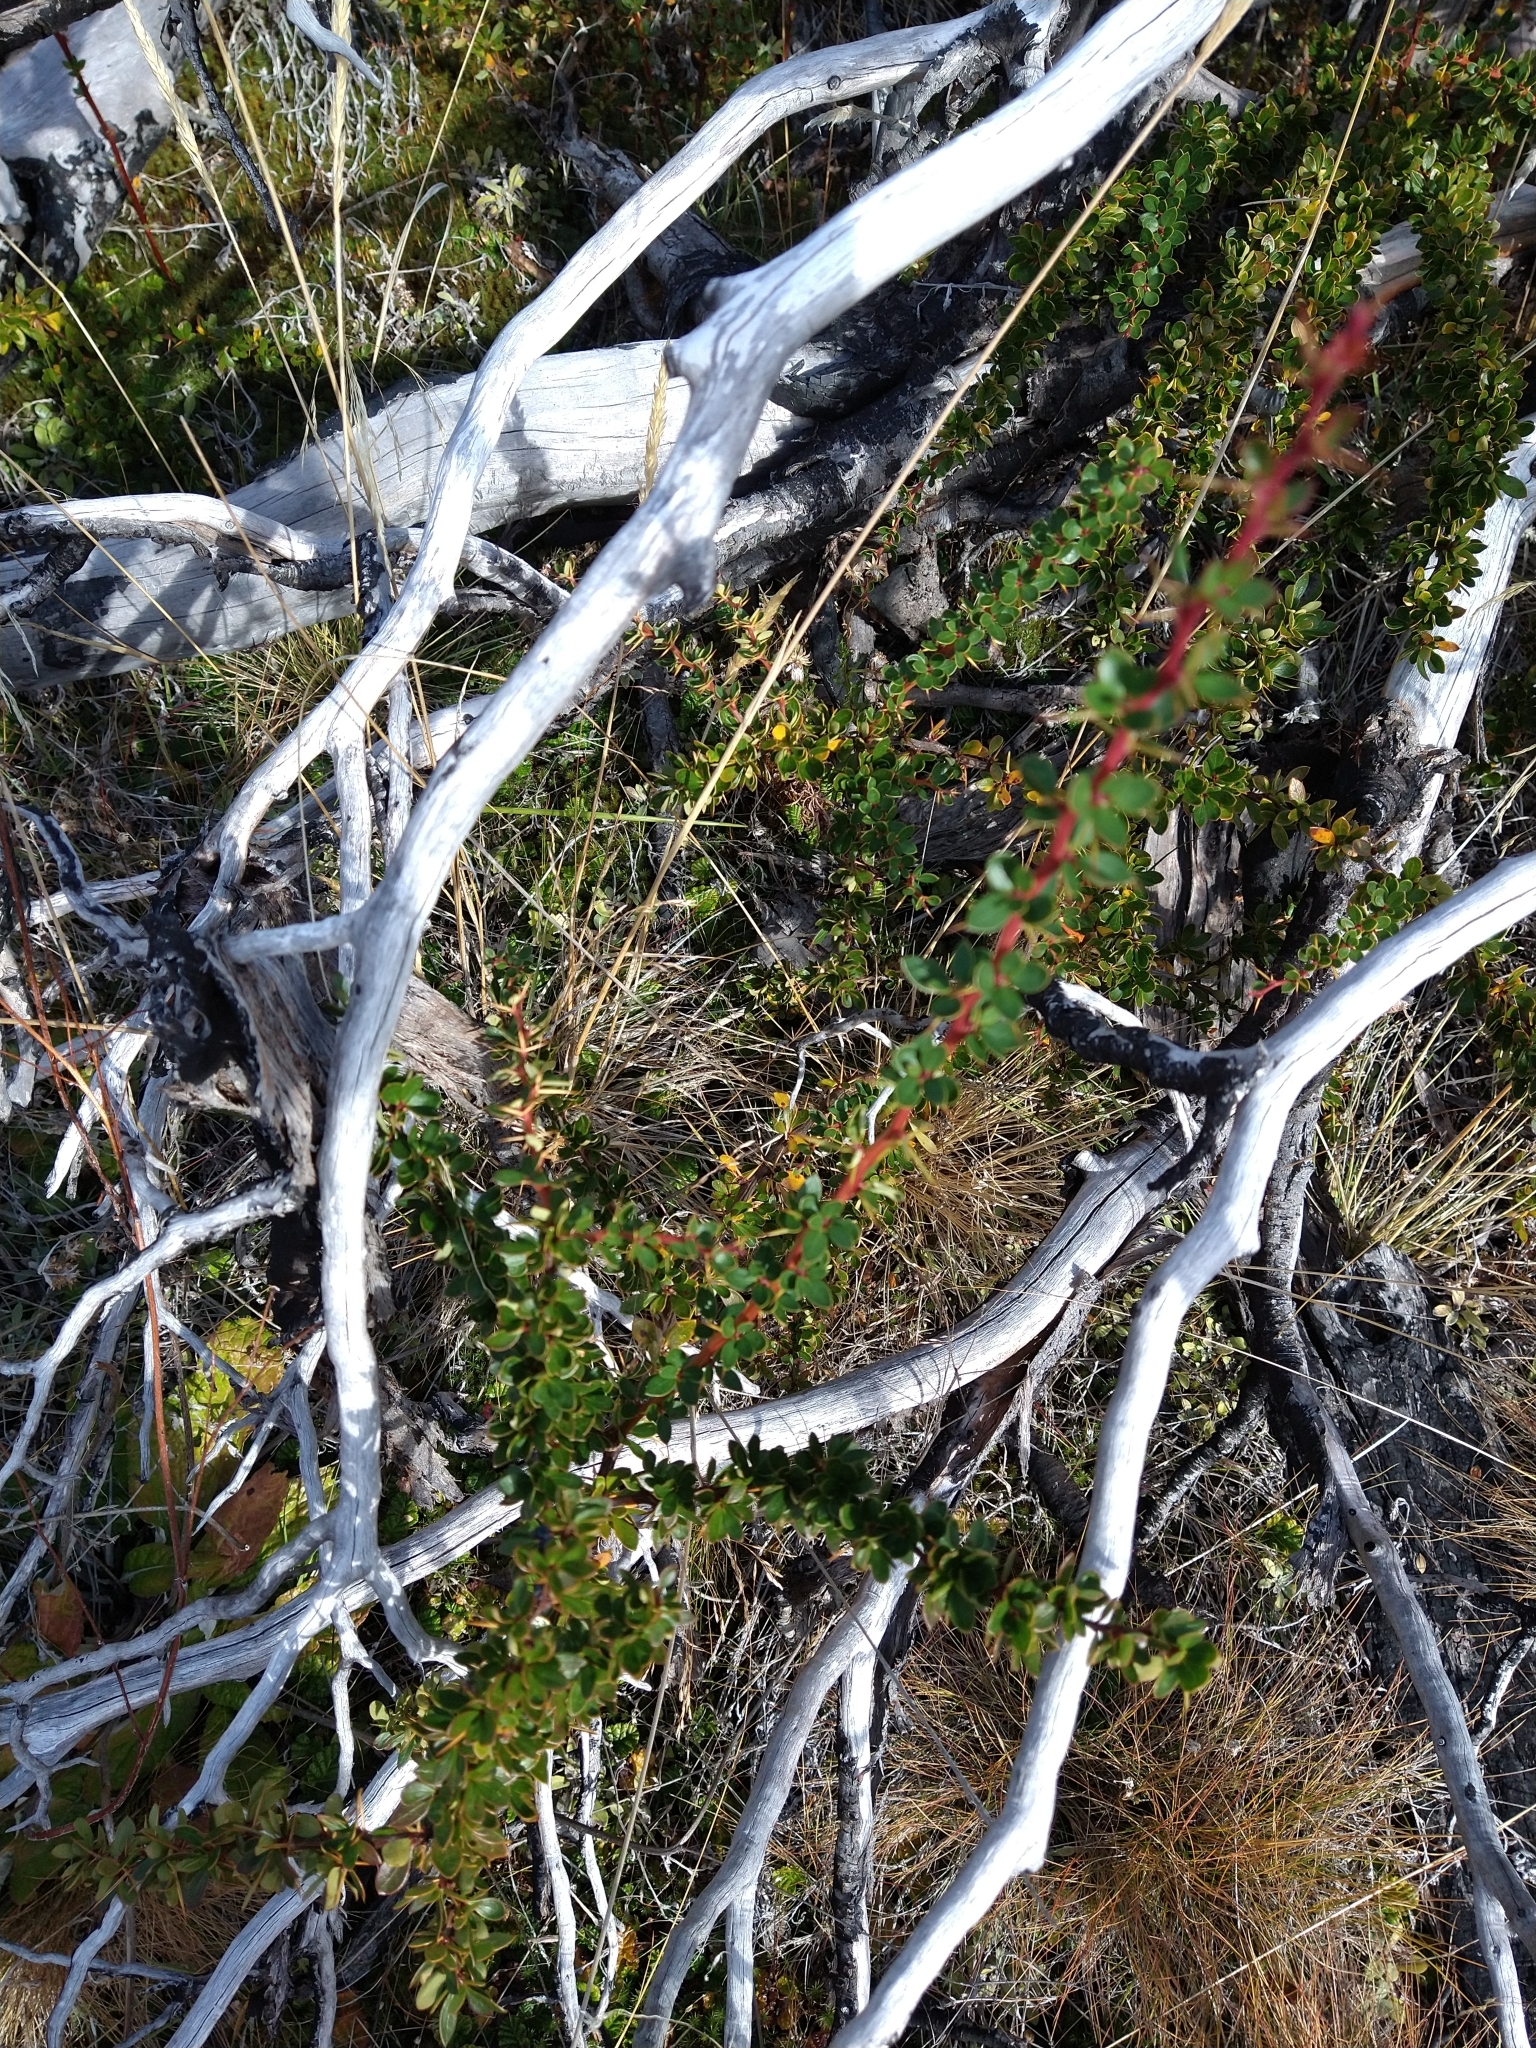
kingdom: Plantae
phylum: Tracheophyta
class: Magnoliopsida
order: Ranunculales
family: Berberidaceae
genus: Berberis
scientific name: Berberis microphylla
